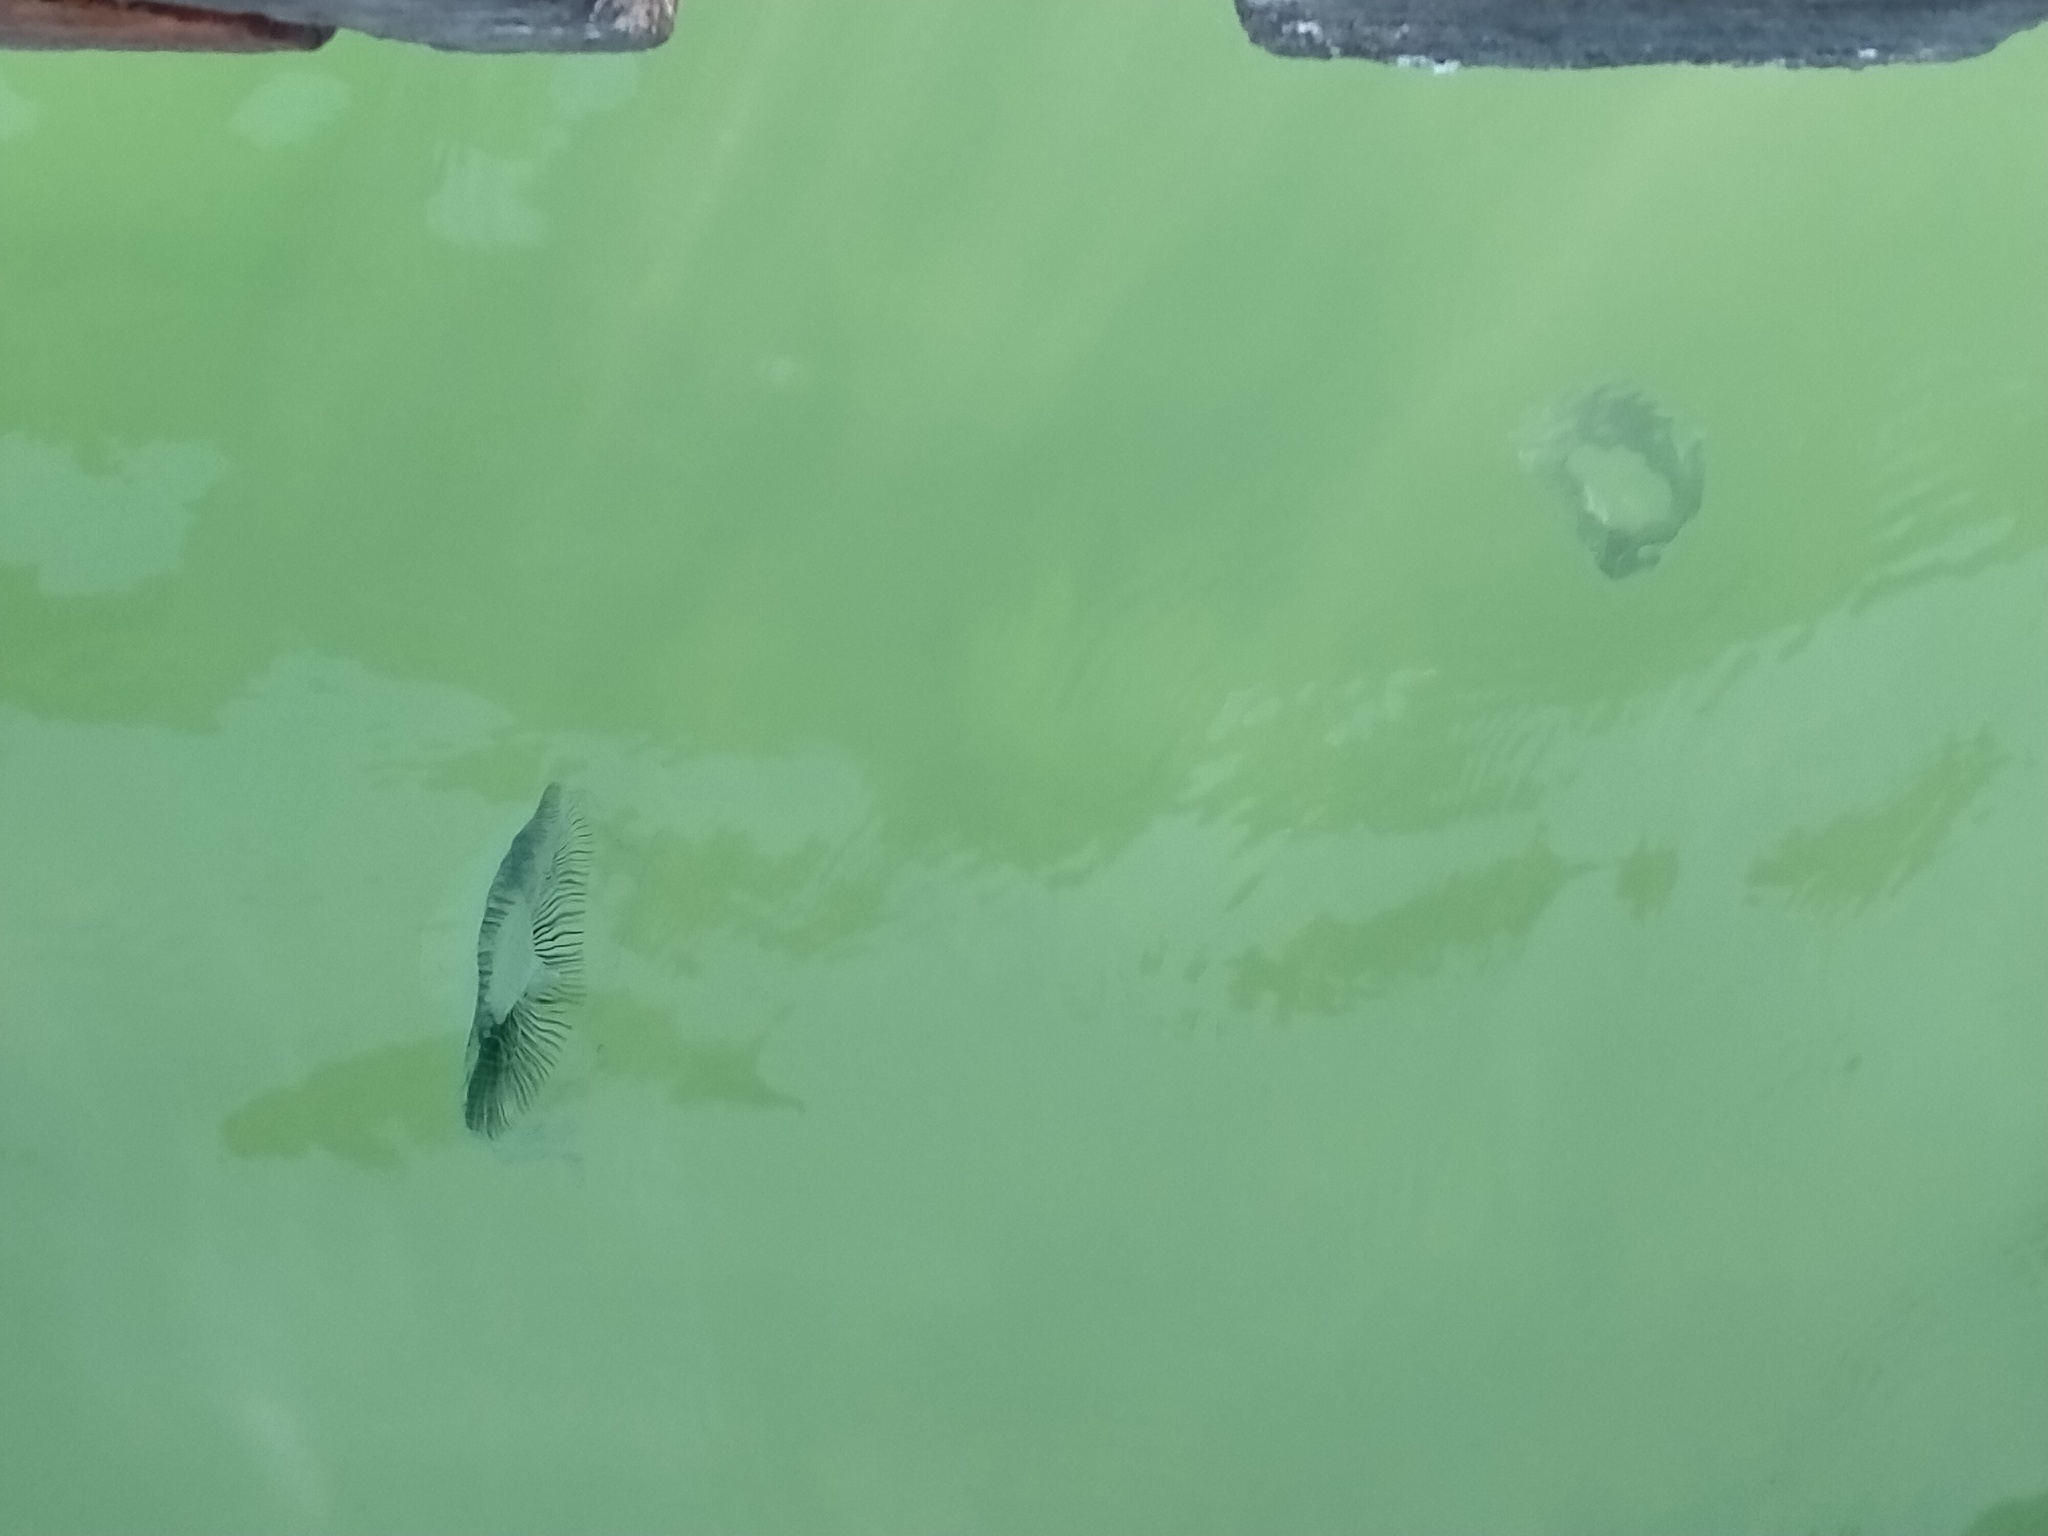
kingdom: Animalia
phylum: Cnidaria
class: Hydrozoa
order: Leptothecata
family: Aequoreidae
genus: Aequorea
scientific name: Aequorea forskalea
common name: Many-ribbed jellyfish
